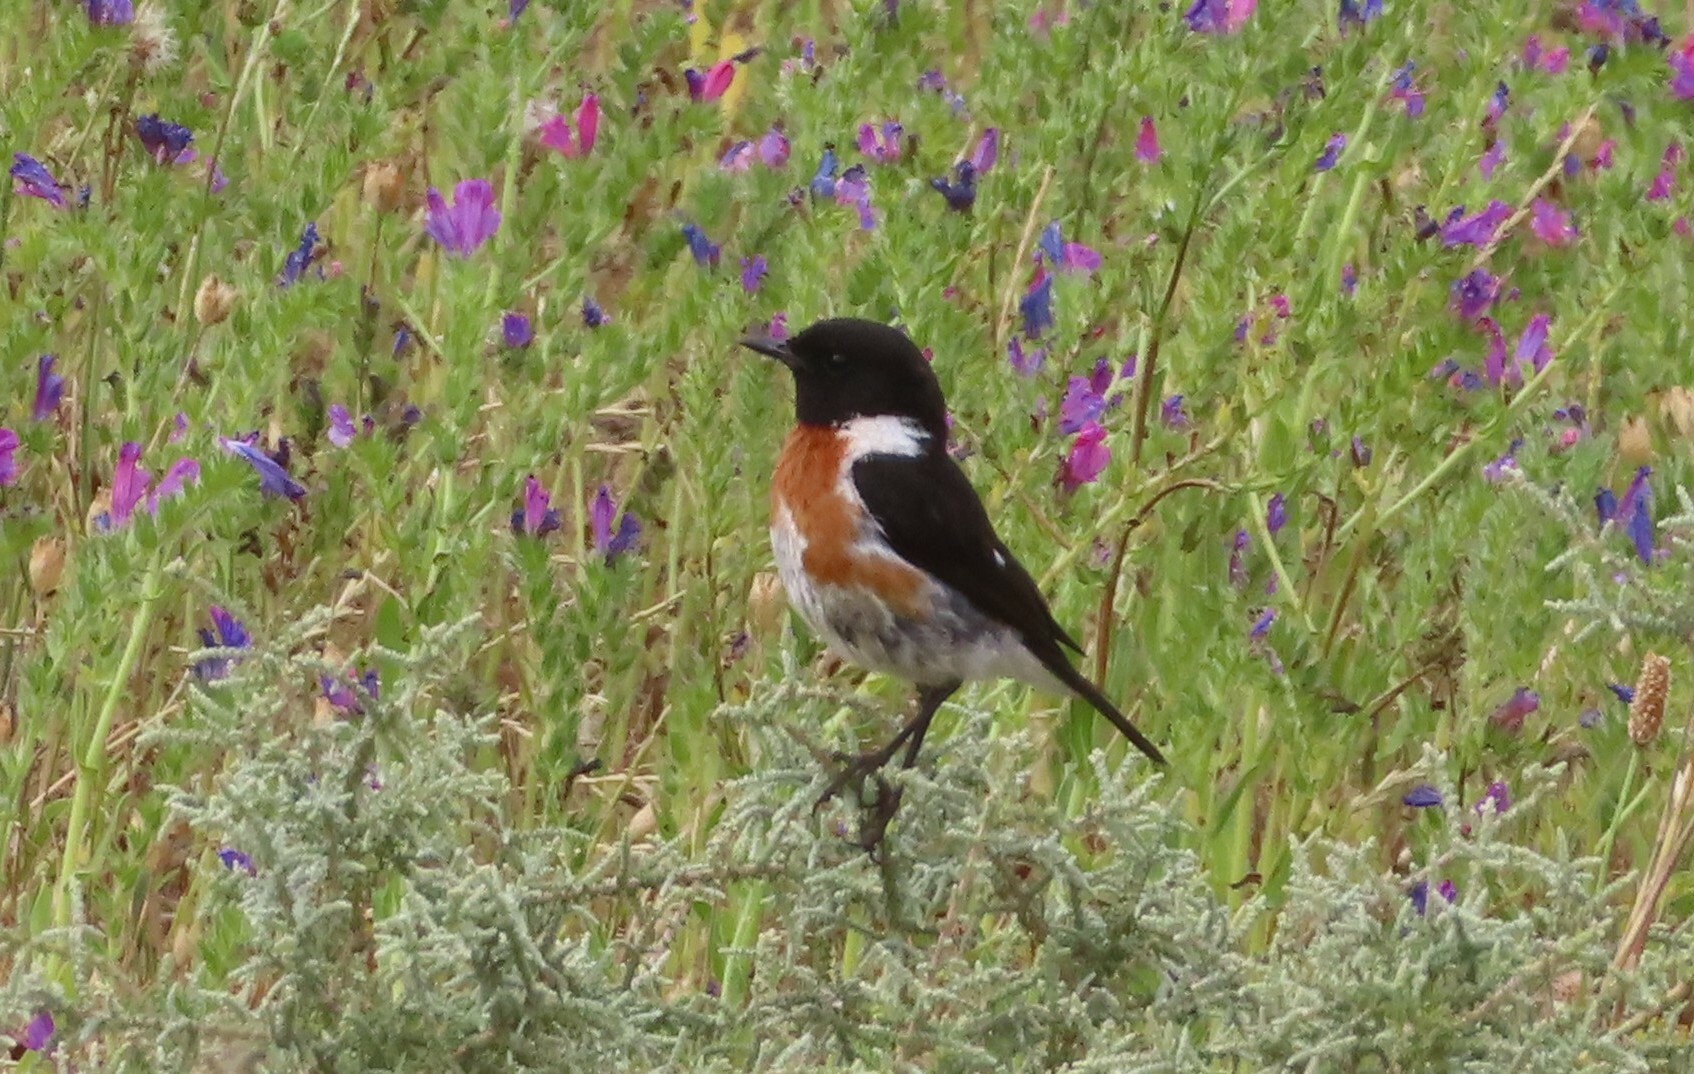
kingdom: Animalia
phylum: Chordata
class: Aves
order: Passeriformes
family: Muscicapidae
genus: Saxicola
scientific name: Saxicola torquatus
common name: African stonechat
